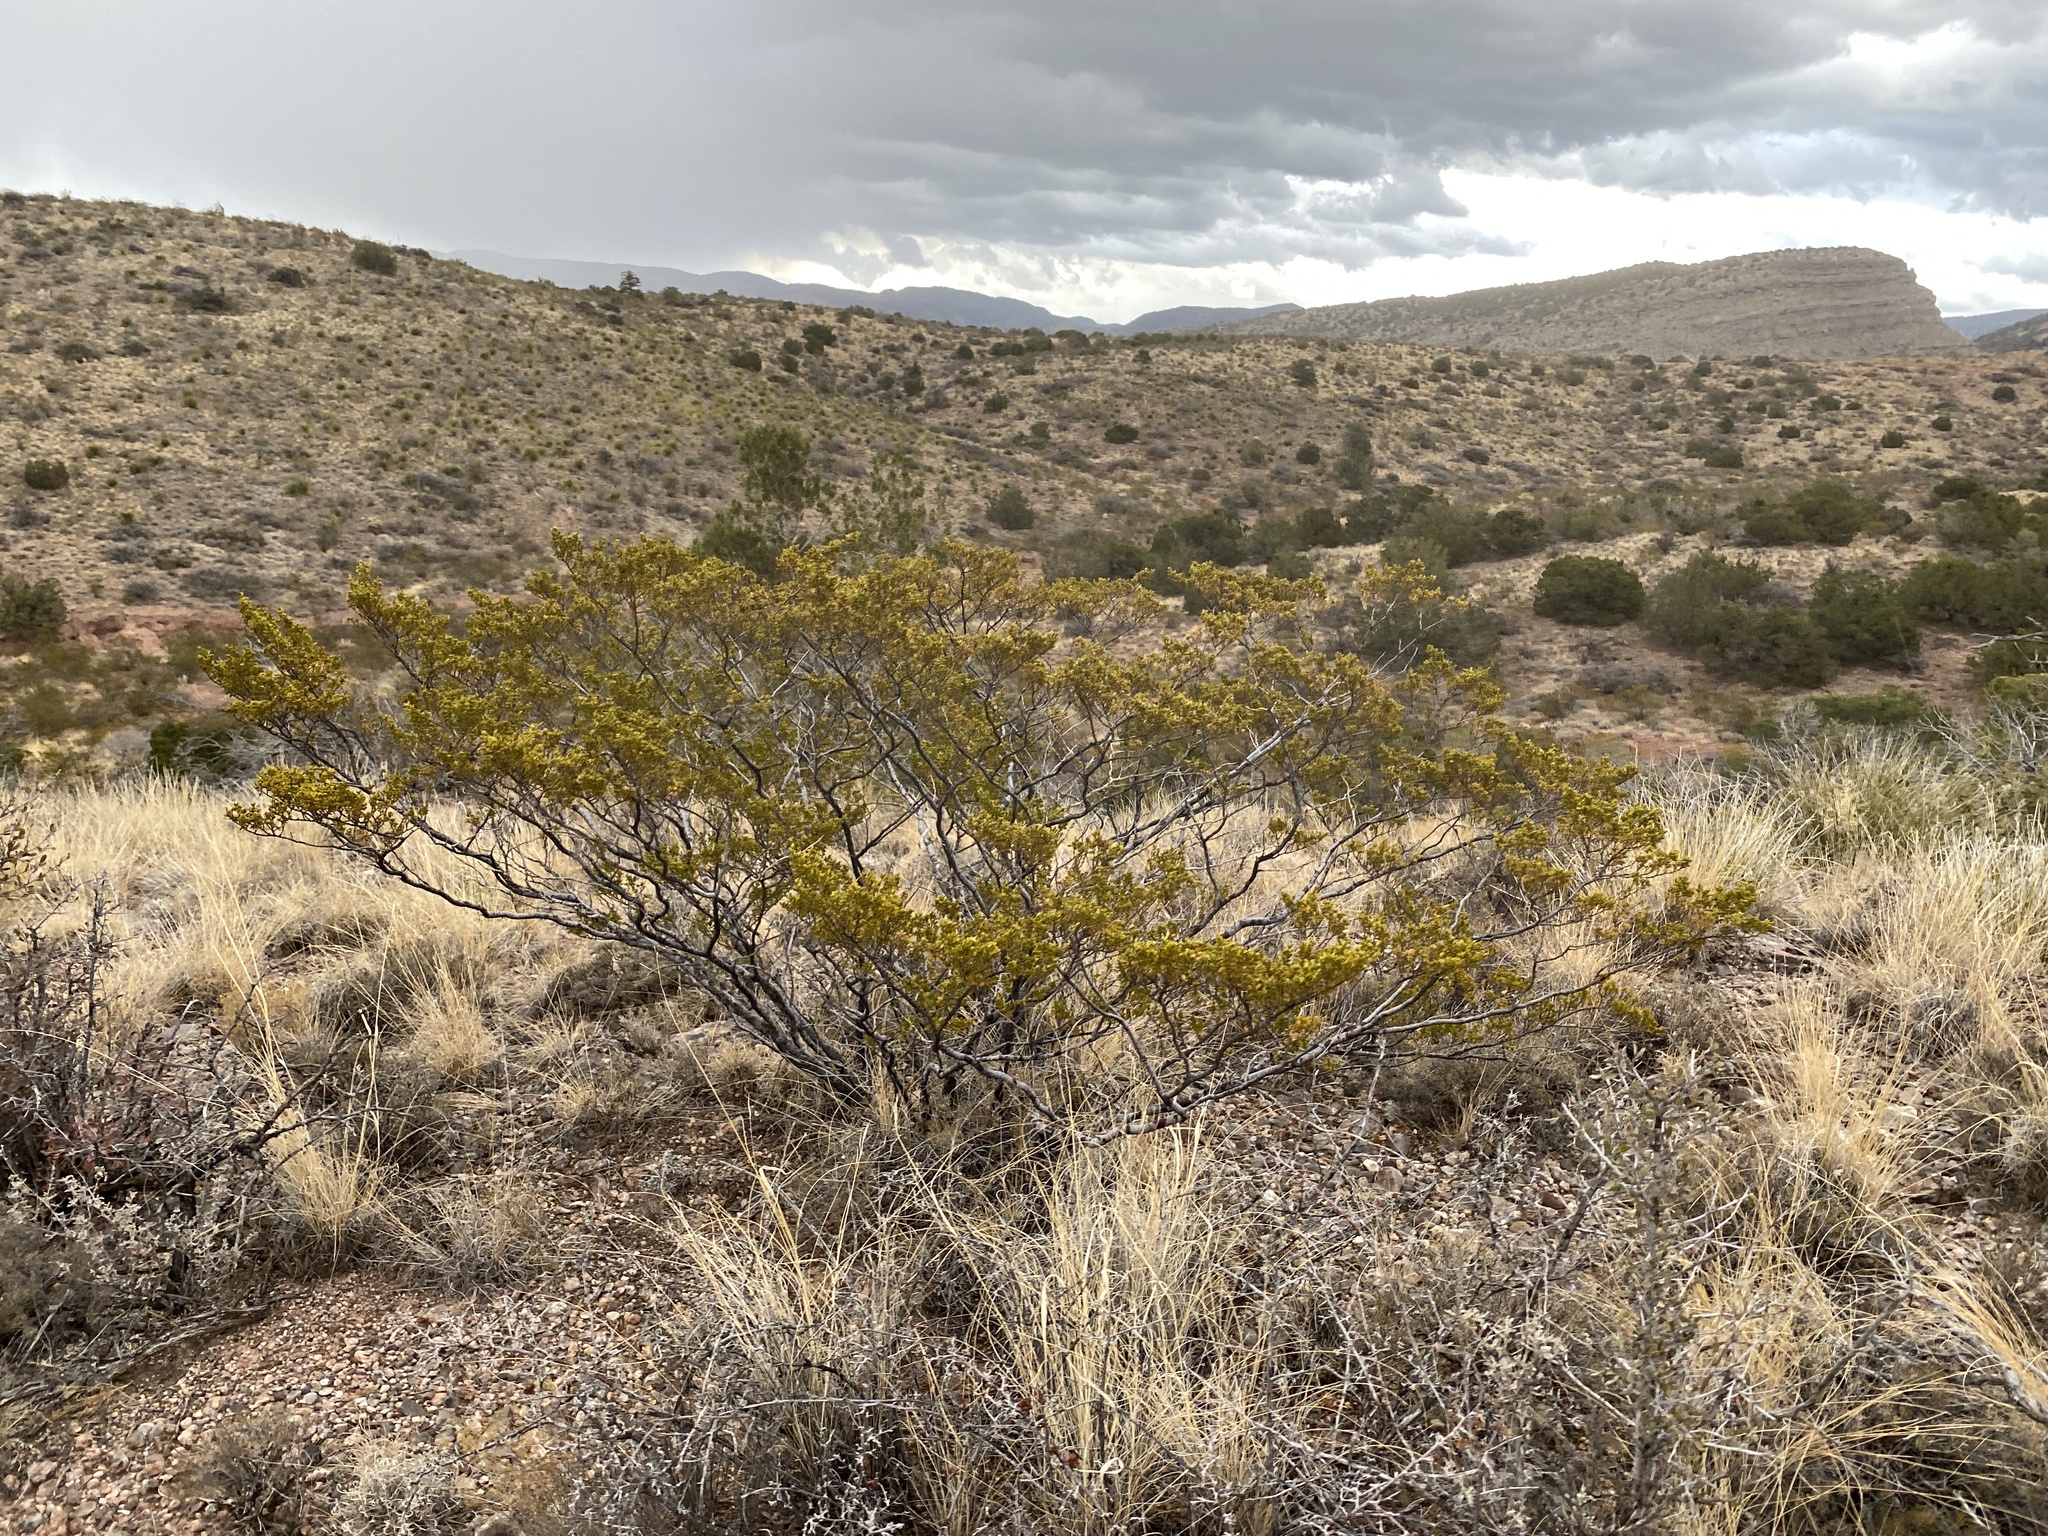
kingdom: Plantae
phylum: Tracheophyta
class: Magnoliopsida
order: Zygophyllales
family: Zygophyllaceae
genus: Larrea
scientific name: Larrea tridentata
